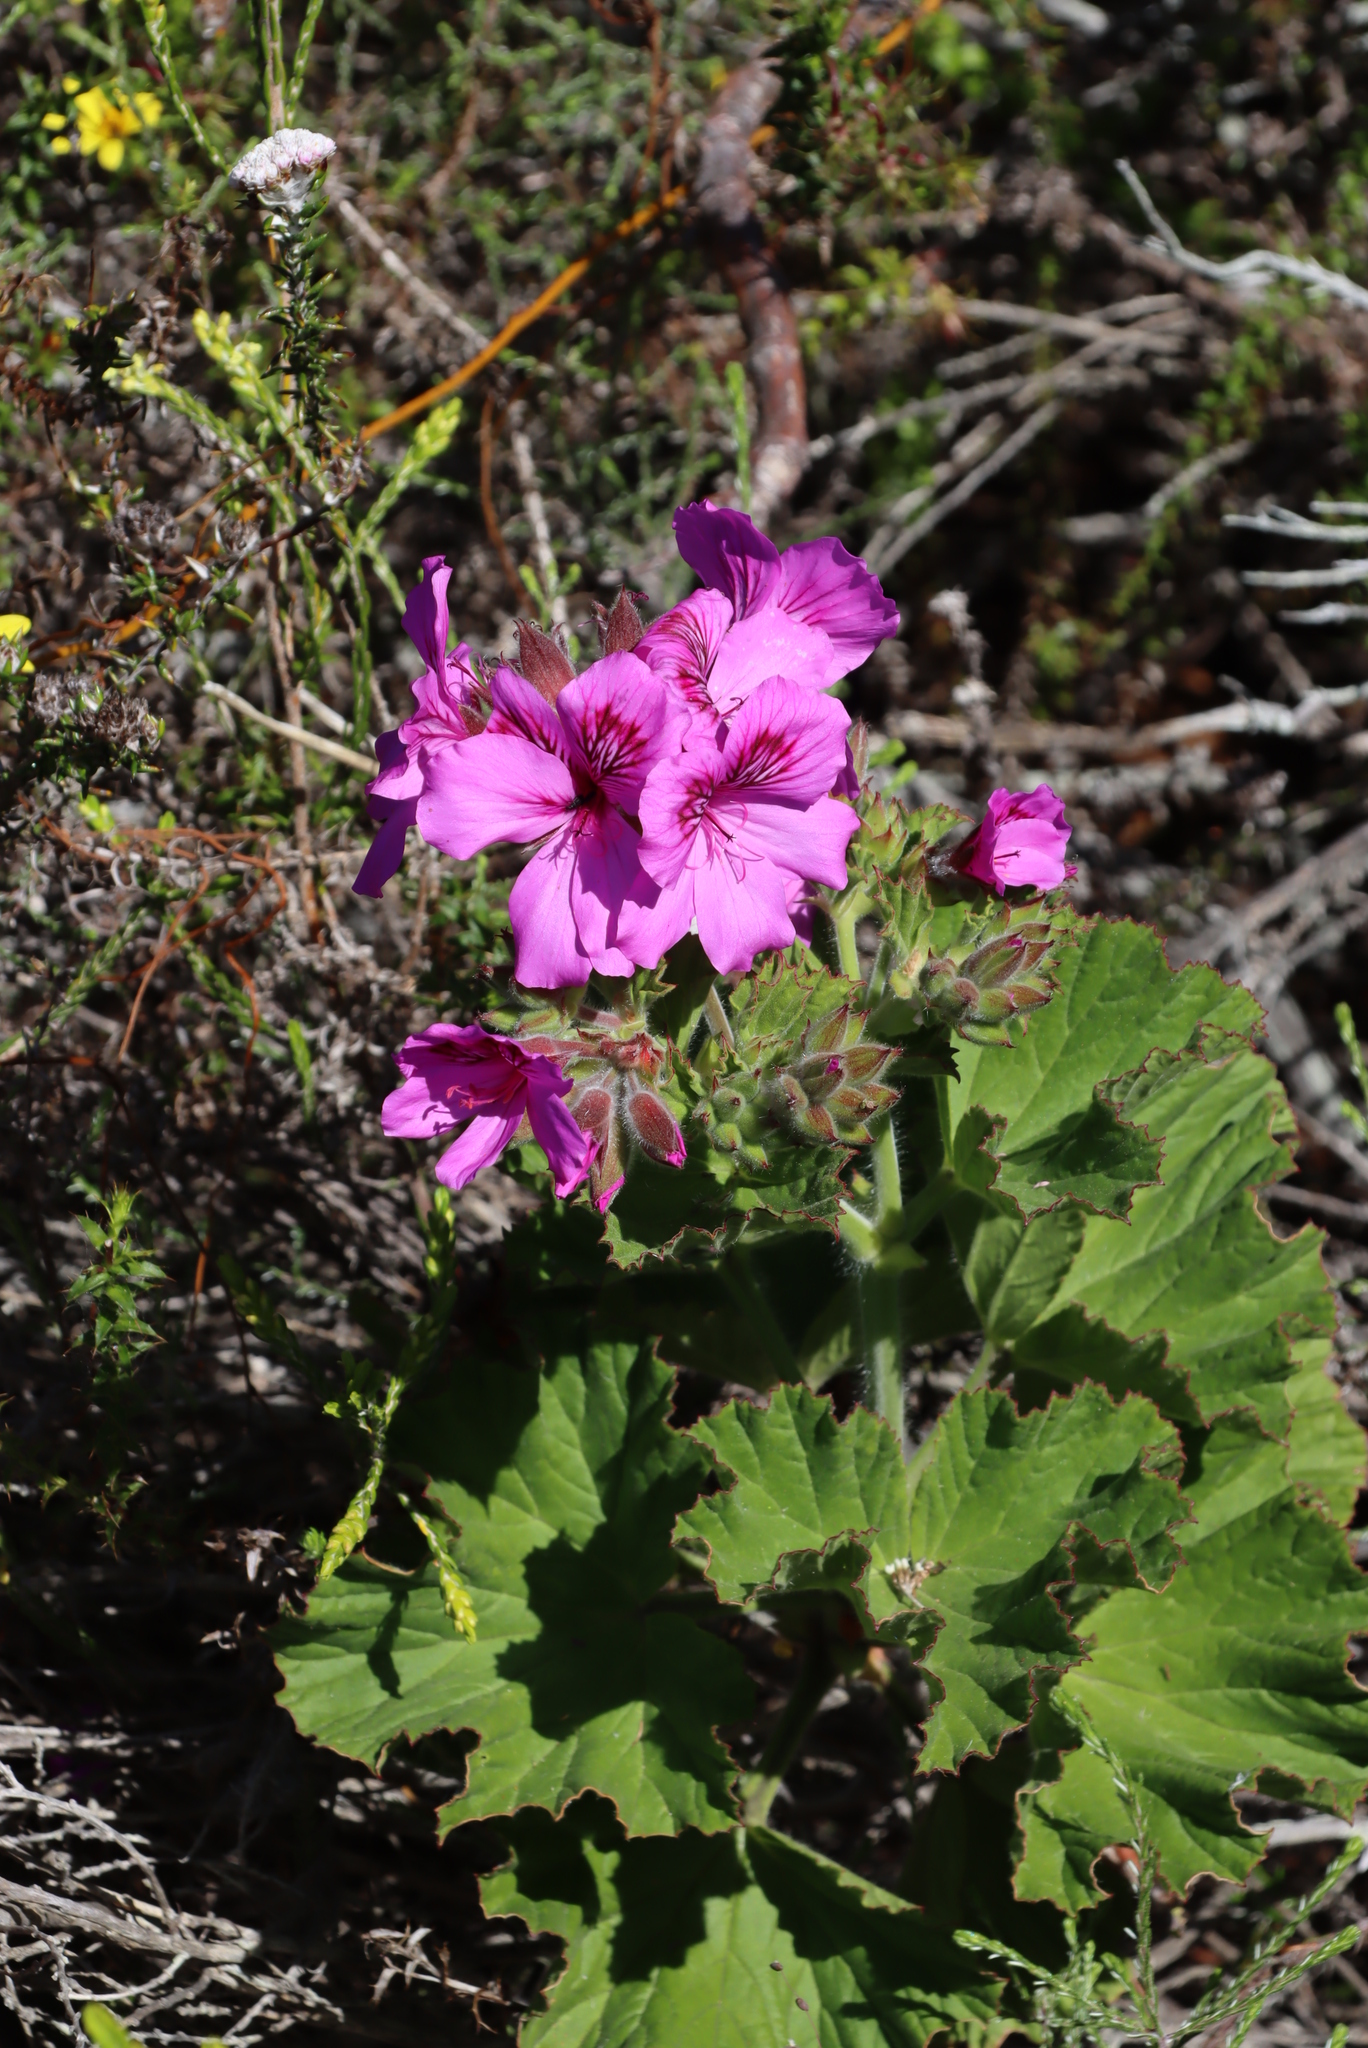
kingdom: Plantae
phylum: Tracheophyta
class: Magnoliopsida
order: Geraniales
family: Geraniaceae
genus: Pelargonium
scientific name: Pelargonium cucullatum
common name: Tree pelargonium
